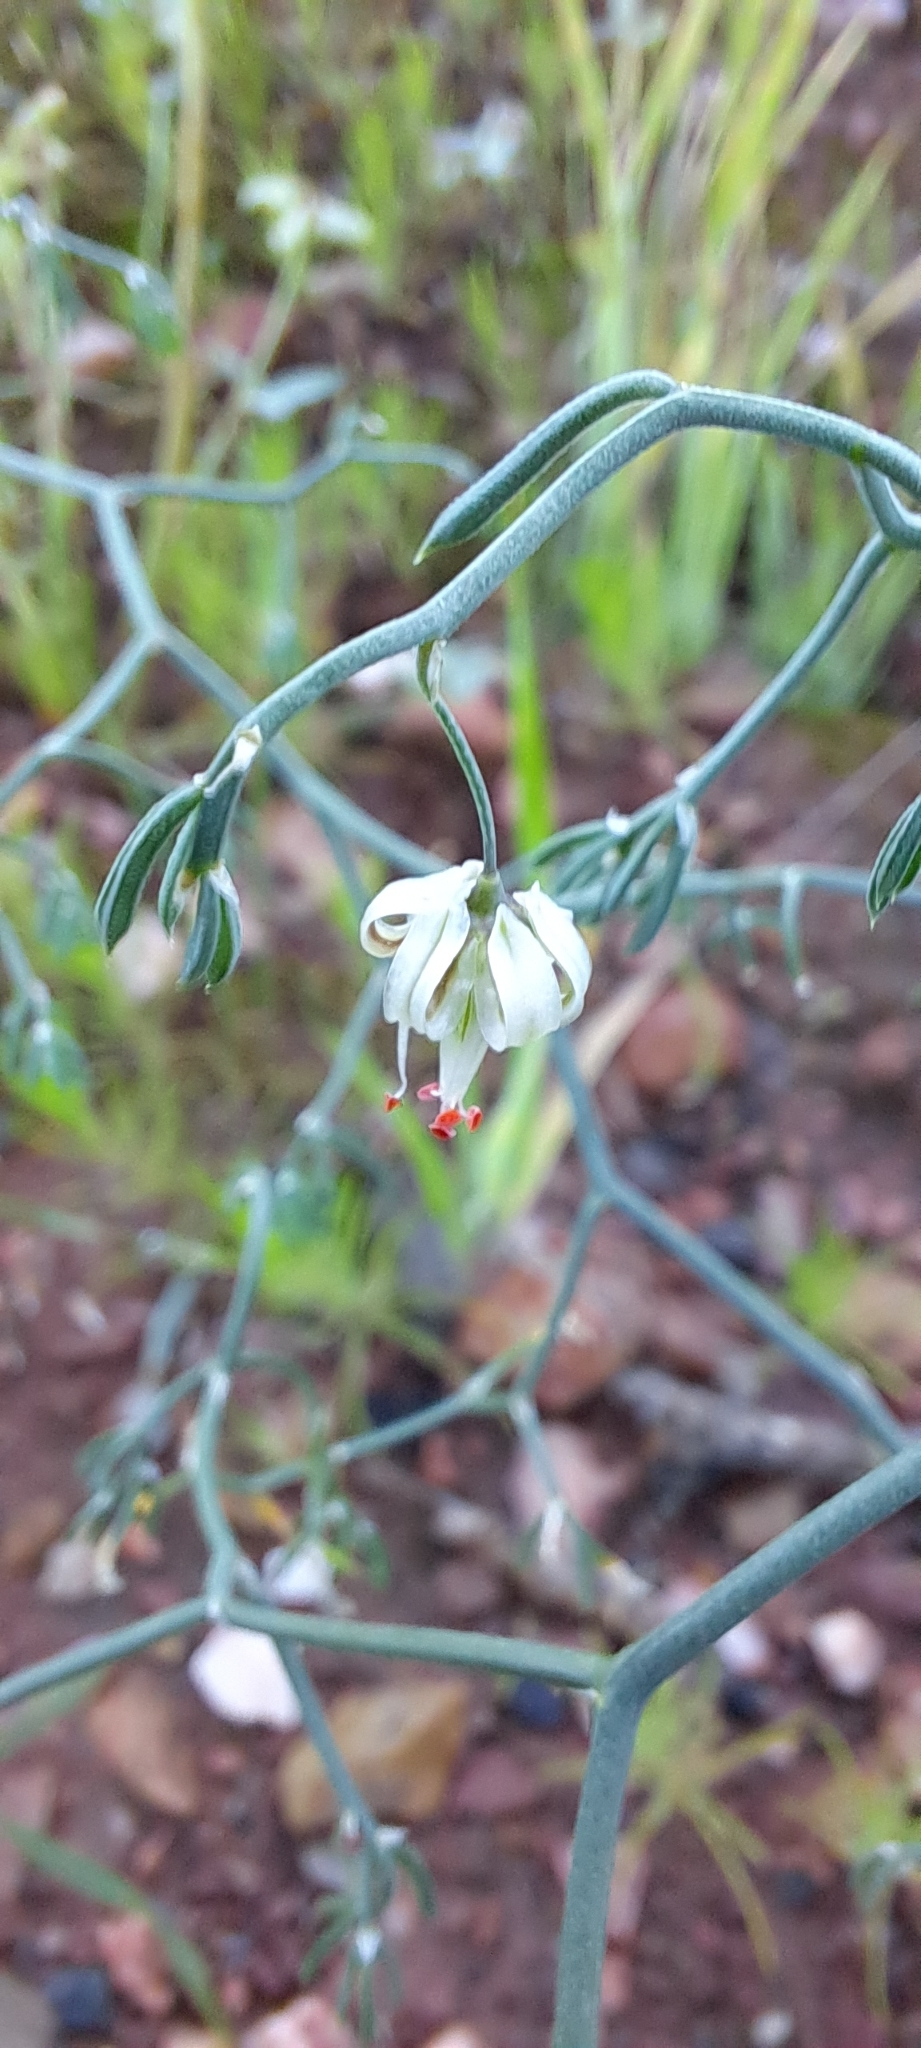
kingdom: Plantae
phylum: Tracheophyta
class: Liliopsida
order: Asparagales
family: Asparagaceae
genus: Asparagus
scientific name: Asparagus declinatus
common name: Bridal-creeper
